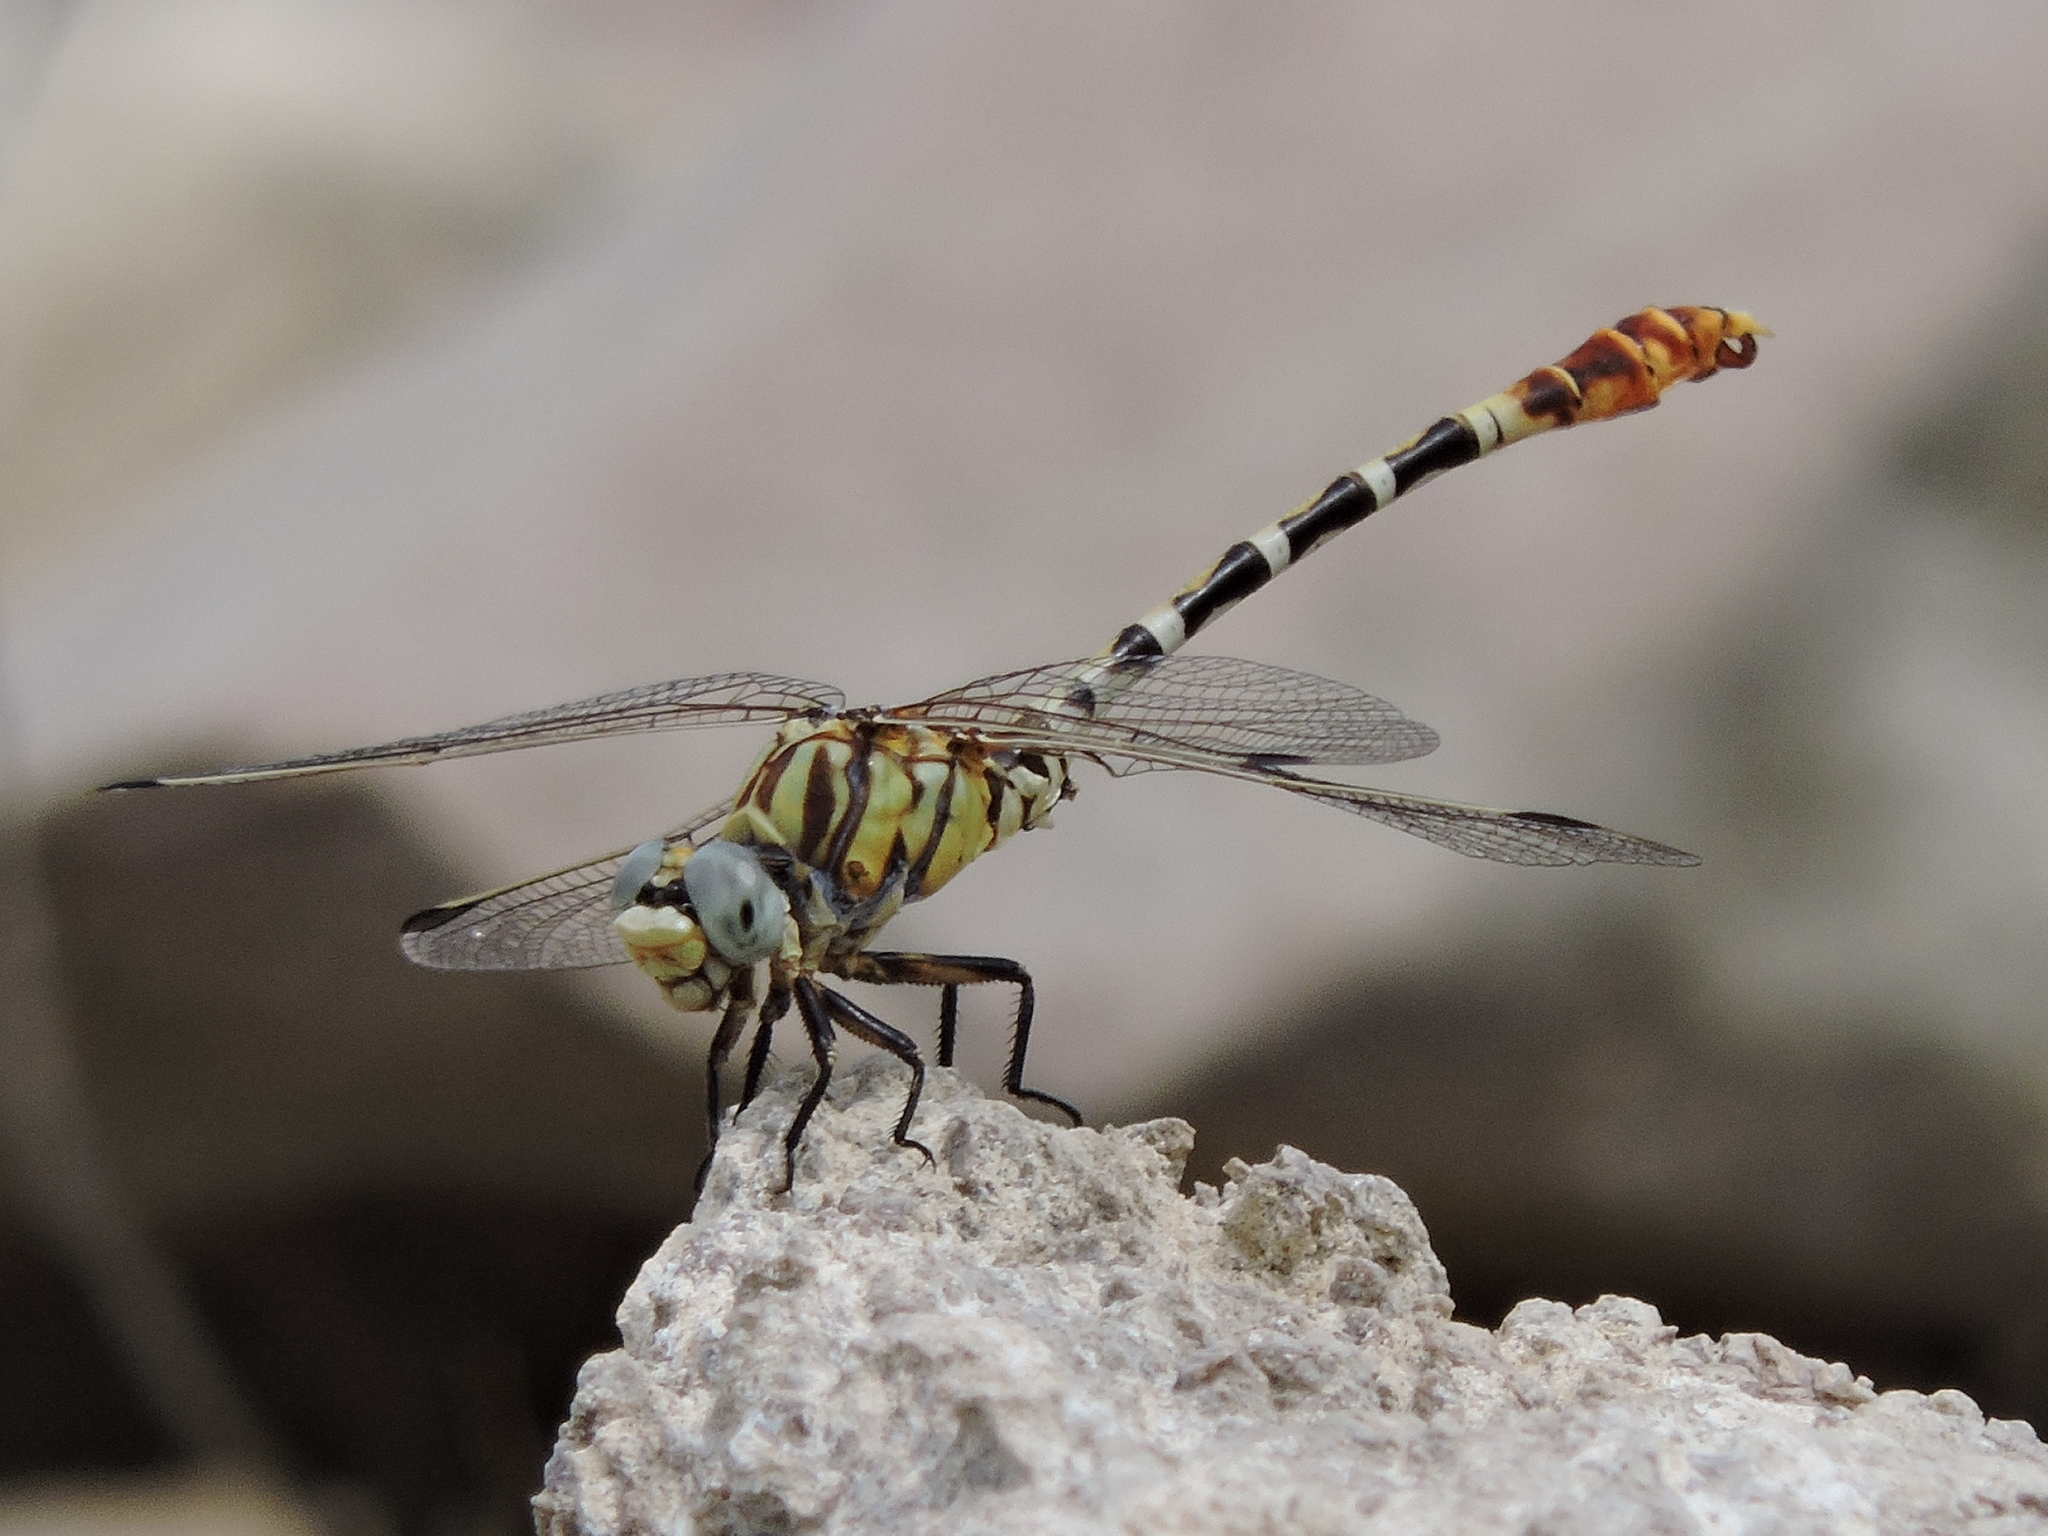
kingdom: Animalia
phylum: Arthropoda
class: Insecta
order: Odonata
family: Gomphidae
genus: Erpetogomphus
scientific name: Erpetogomphus designatus
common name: Eastern ringtail
